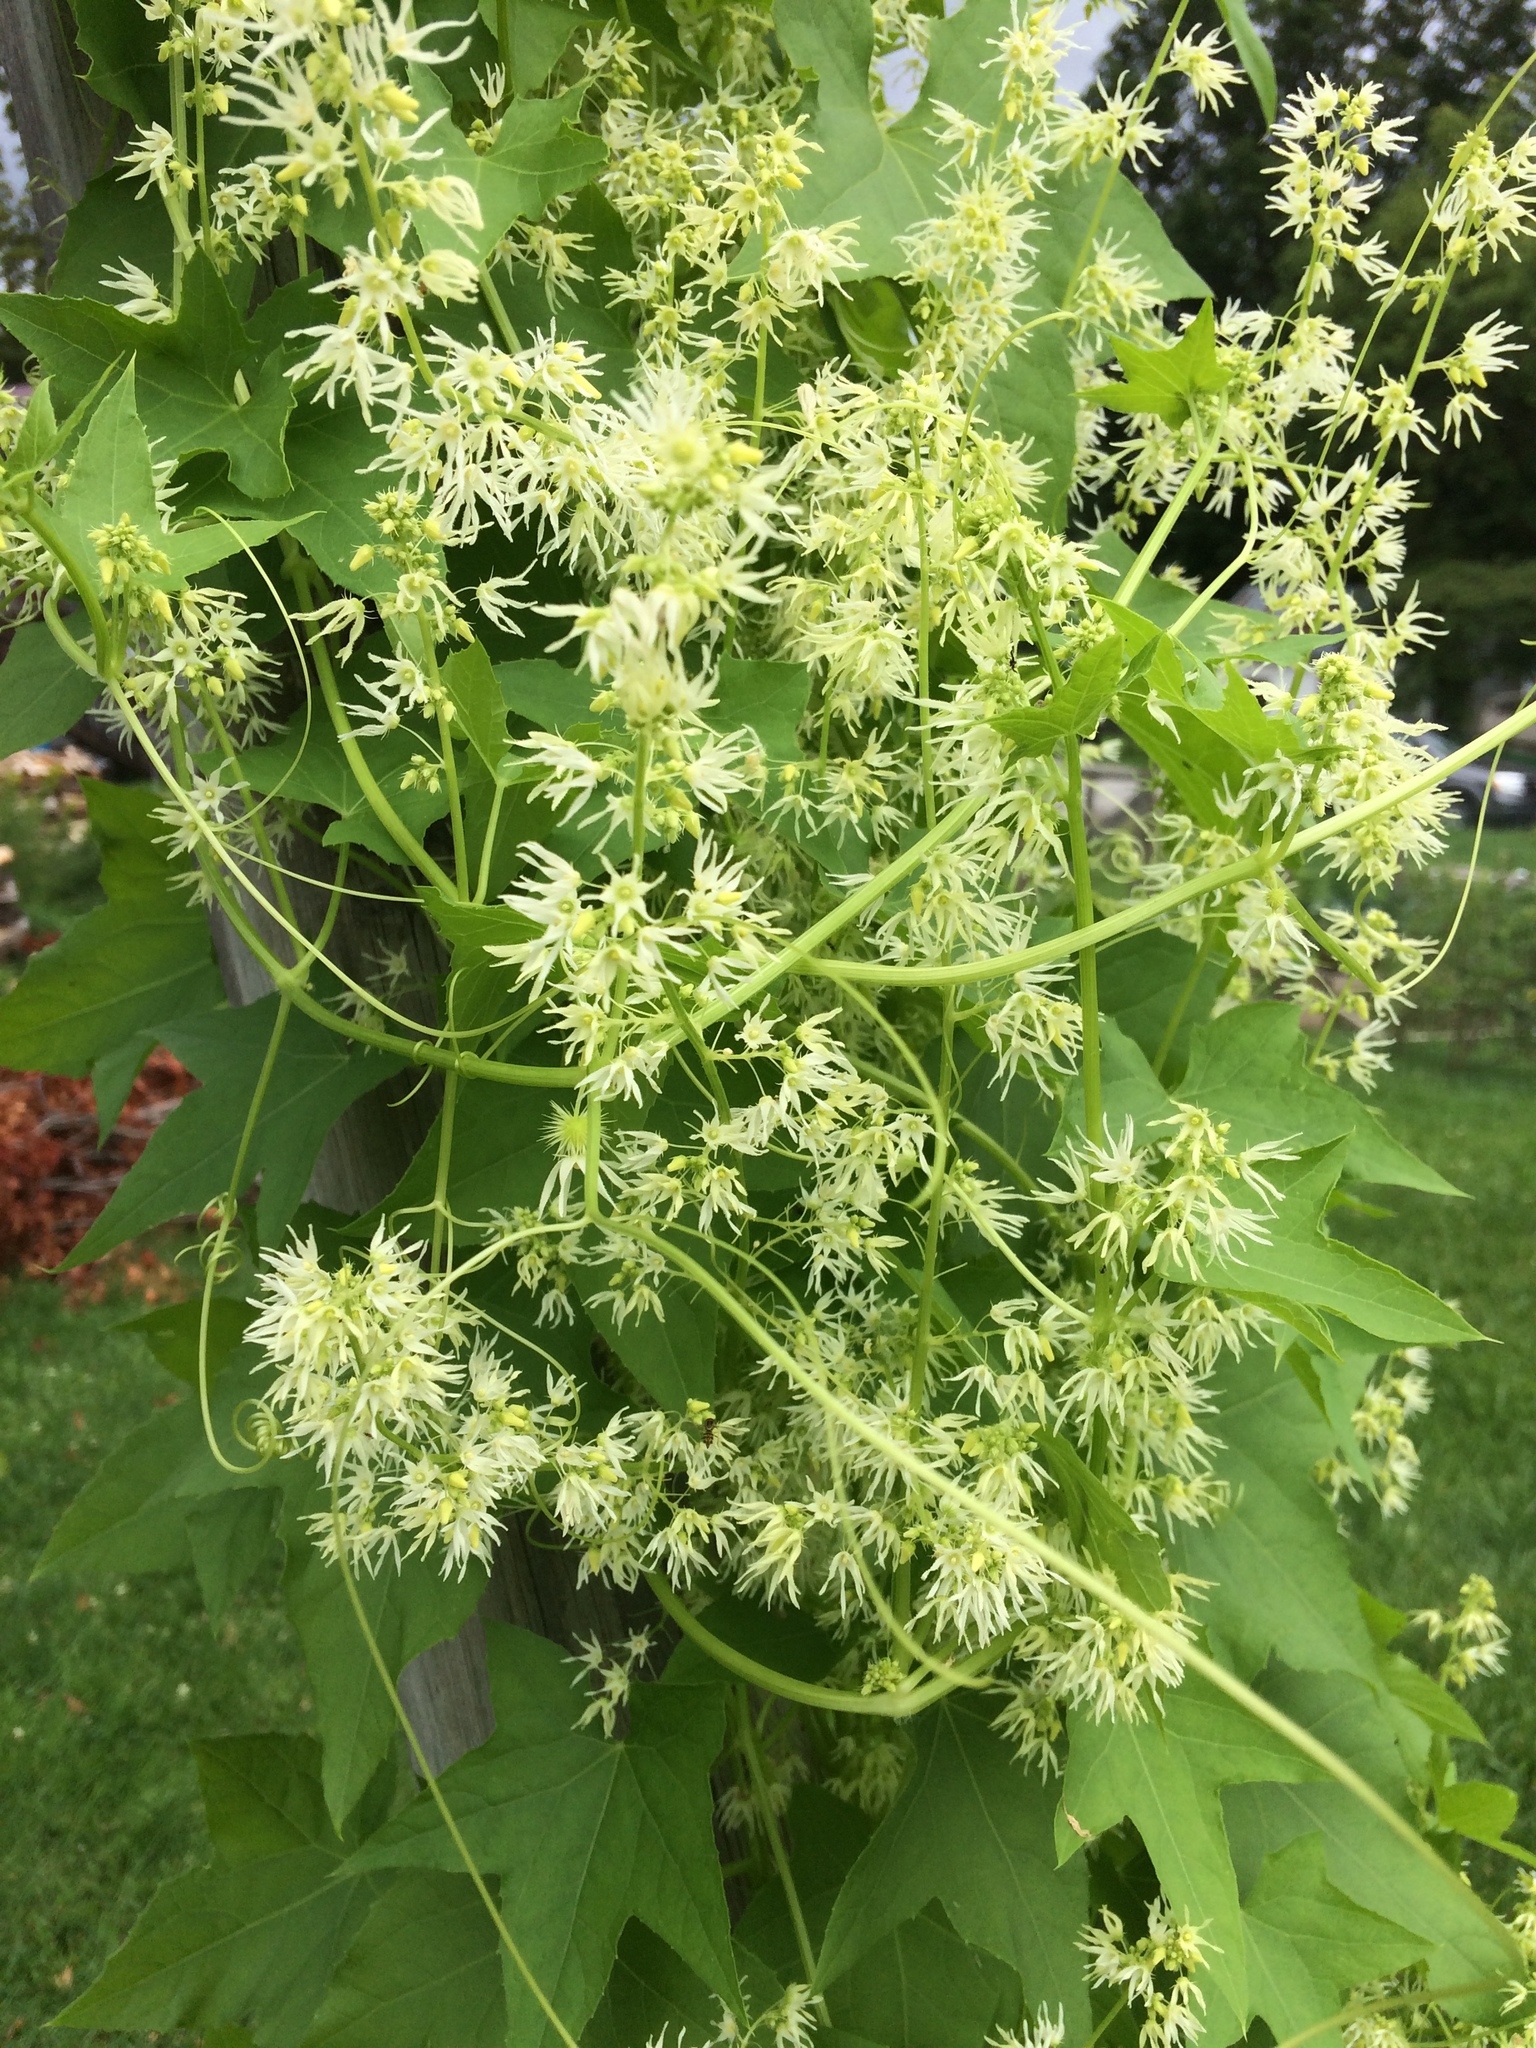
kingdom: Plantae
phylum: Tracheophyta
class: Magnoliopsida
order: Cucurbitales
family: Cucurbitaceae
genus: Echinocystis
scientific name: Echinocystis lobata
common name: Wild cucumber
